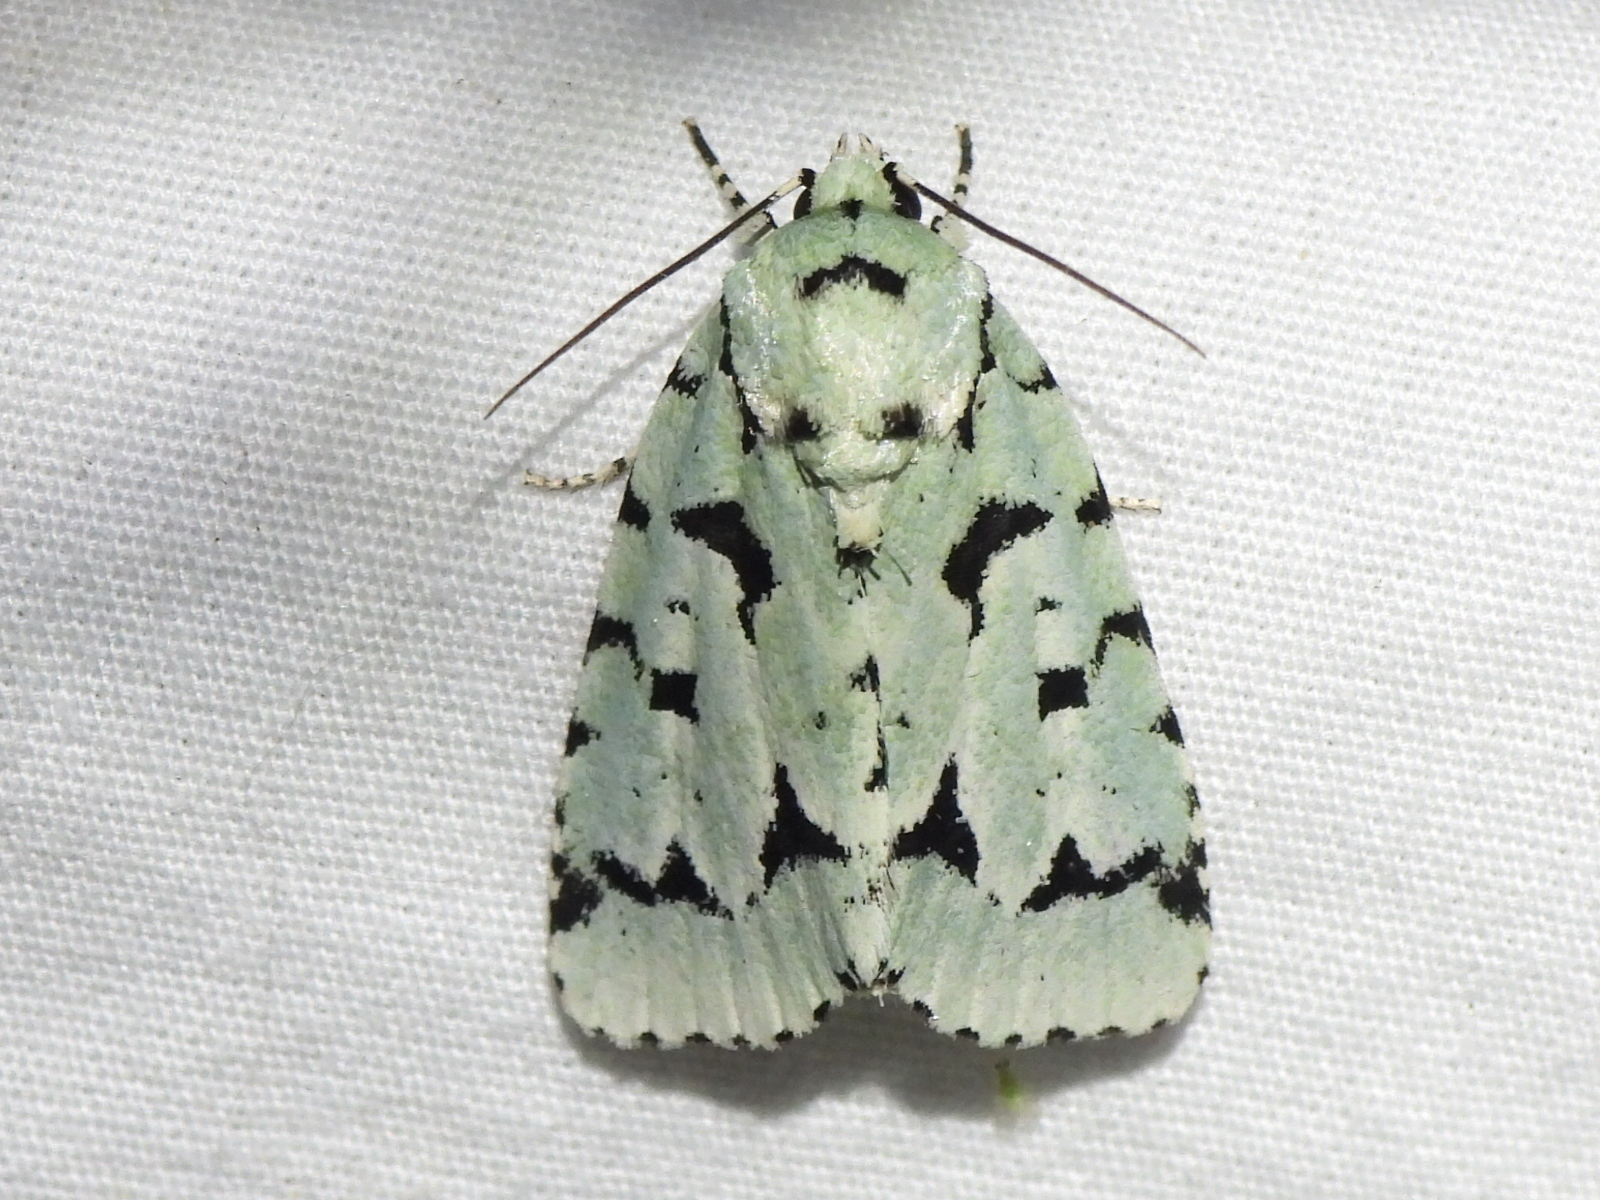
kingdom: Animalia
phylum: Arthropoda
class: Insecta
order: Lepidoptera
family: Noctuidae
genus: Acronicta
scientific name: Acronicta fallax
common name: Green marvel
